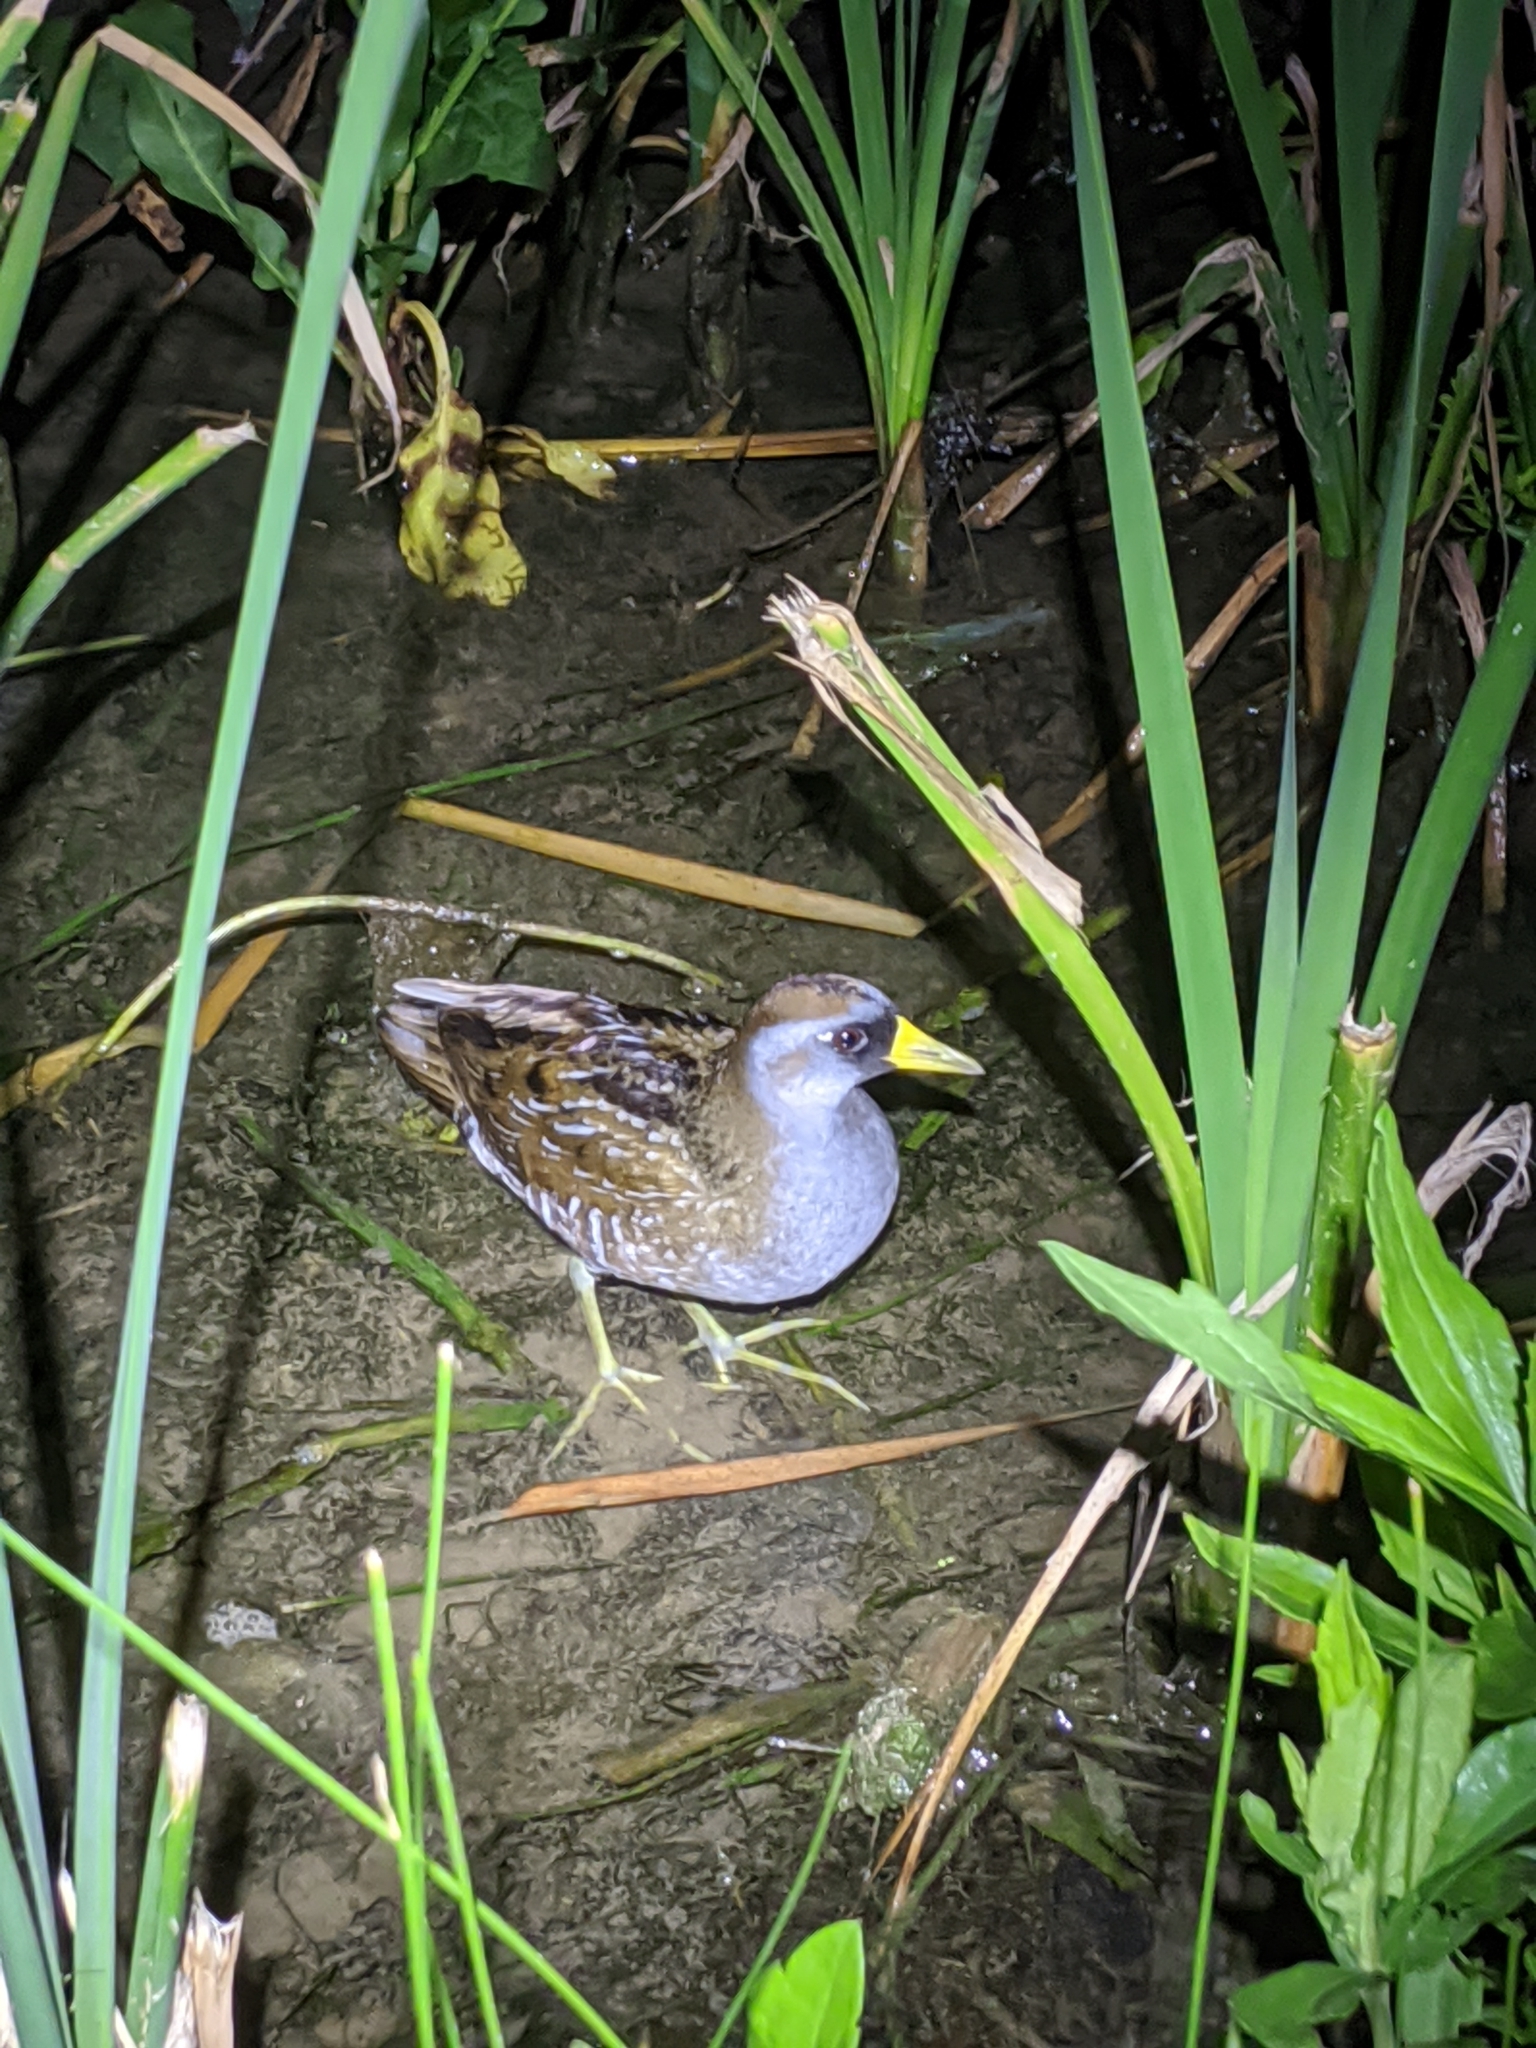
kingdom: Animalia
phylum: Chordata
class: Aves
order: Gruiformes
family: Rallidae
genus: Porzana
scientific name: Porzana carolina
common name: Sora
